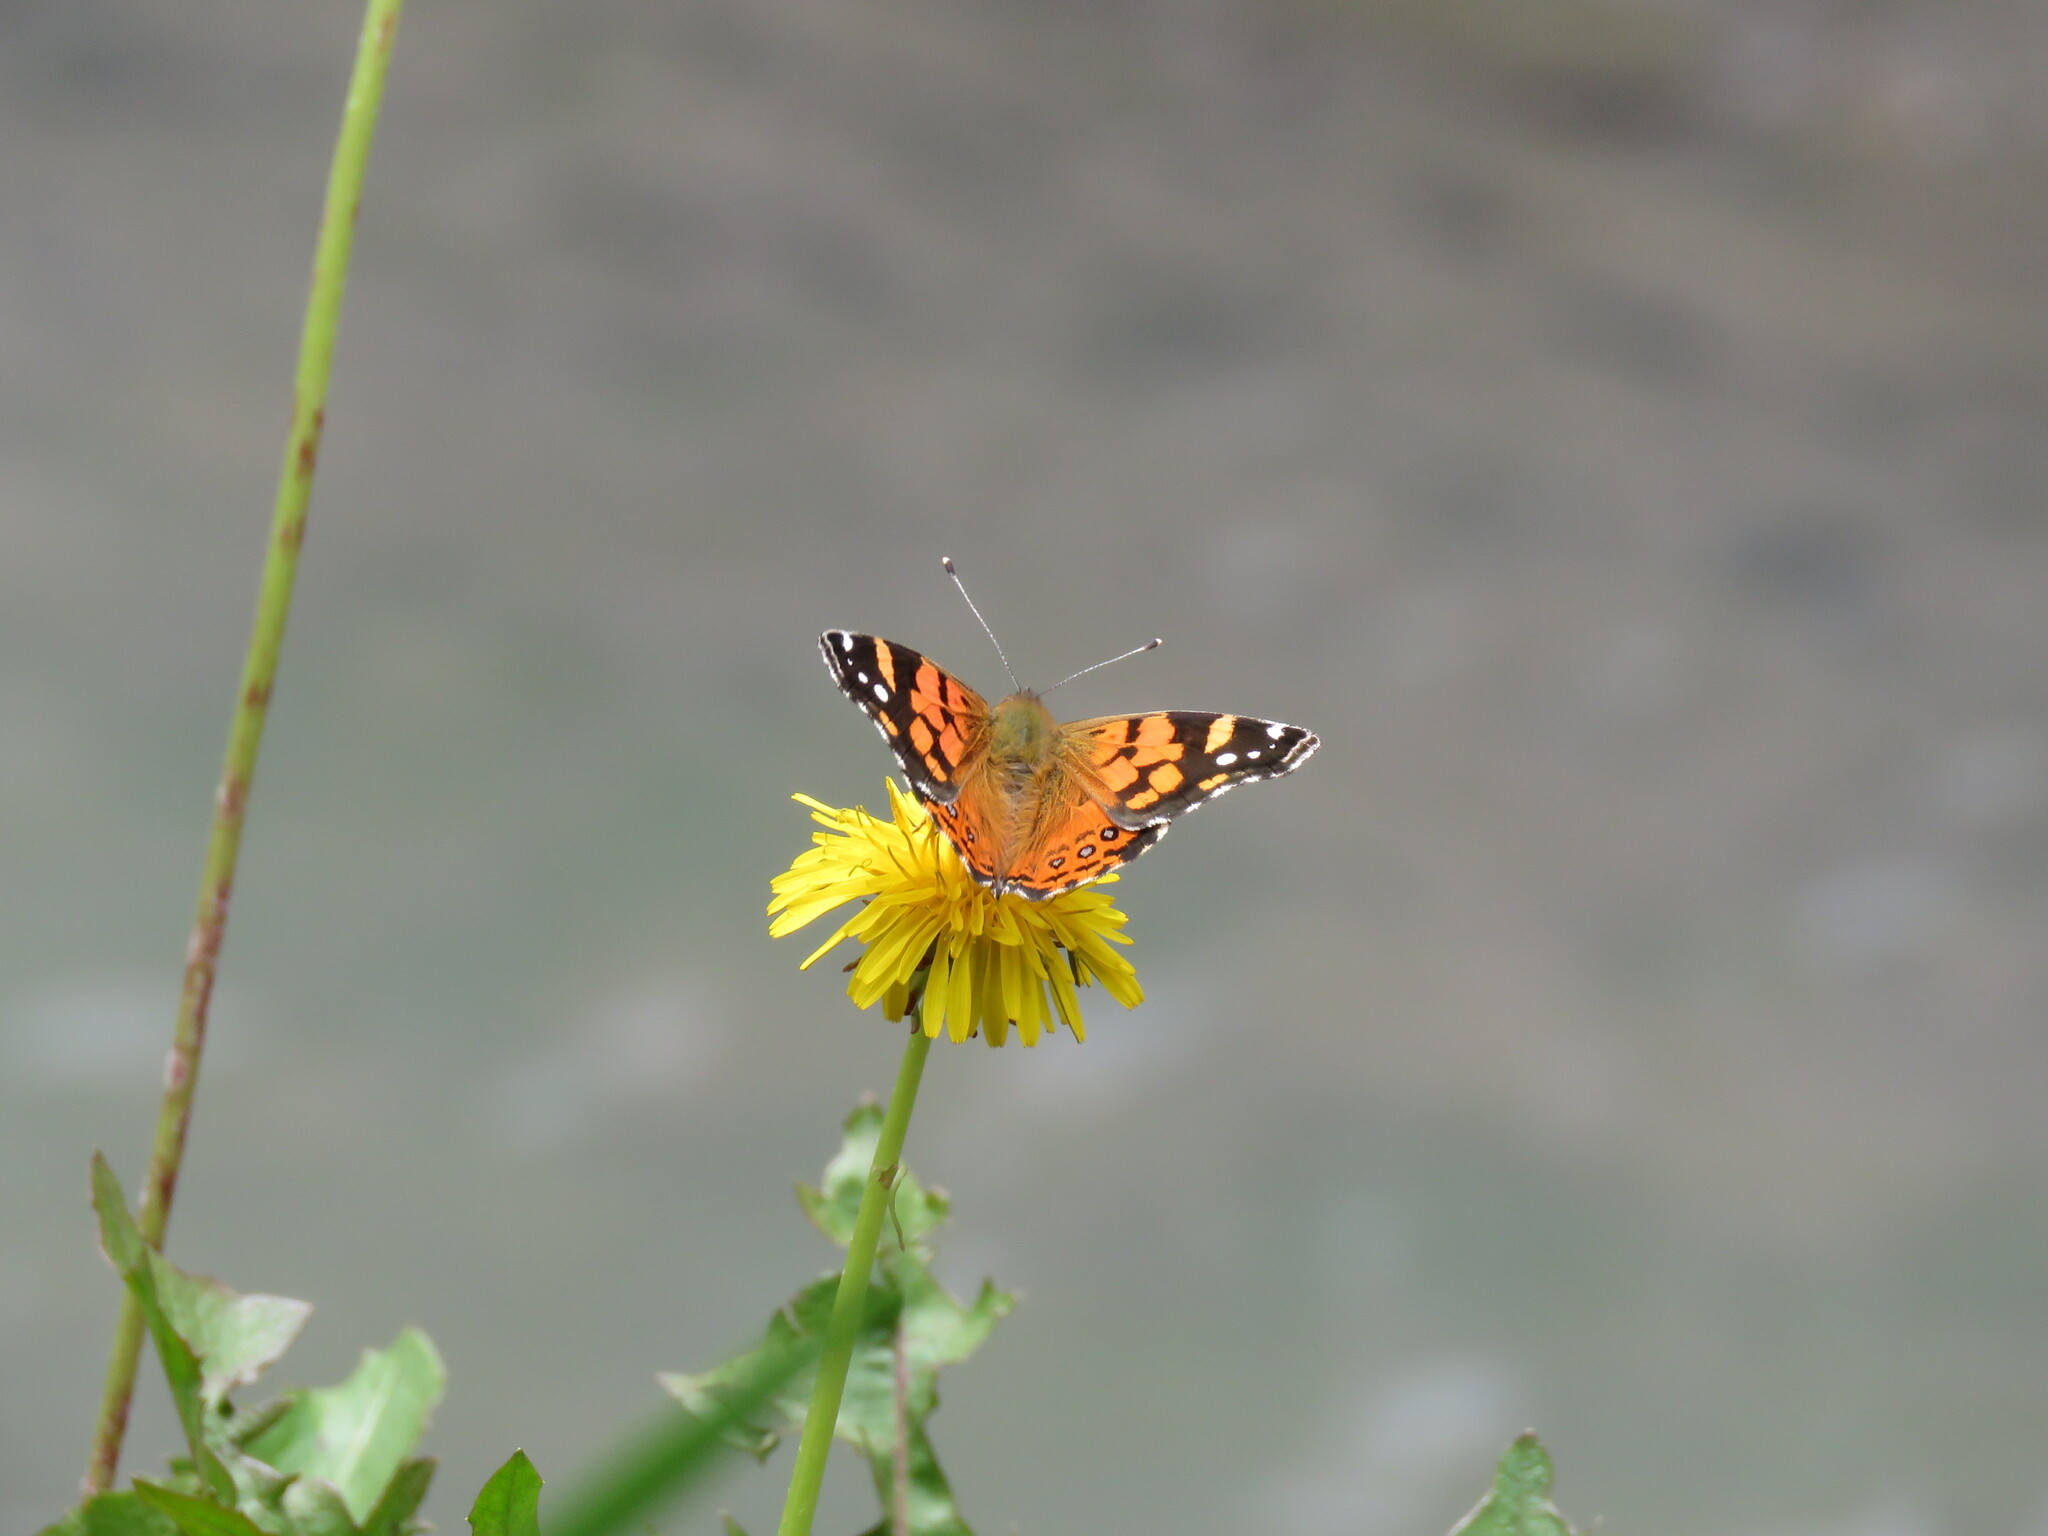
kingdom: Animalia
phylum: Arthropoda
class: Insecta
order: Lepidoptera
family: Nymphalidae
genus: Vanessa
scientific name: Vanessa carye
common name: Subtropical lady
